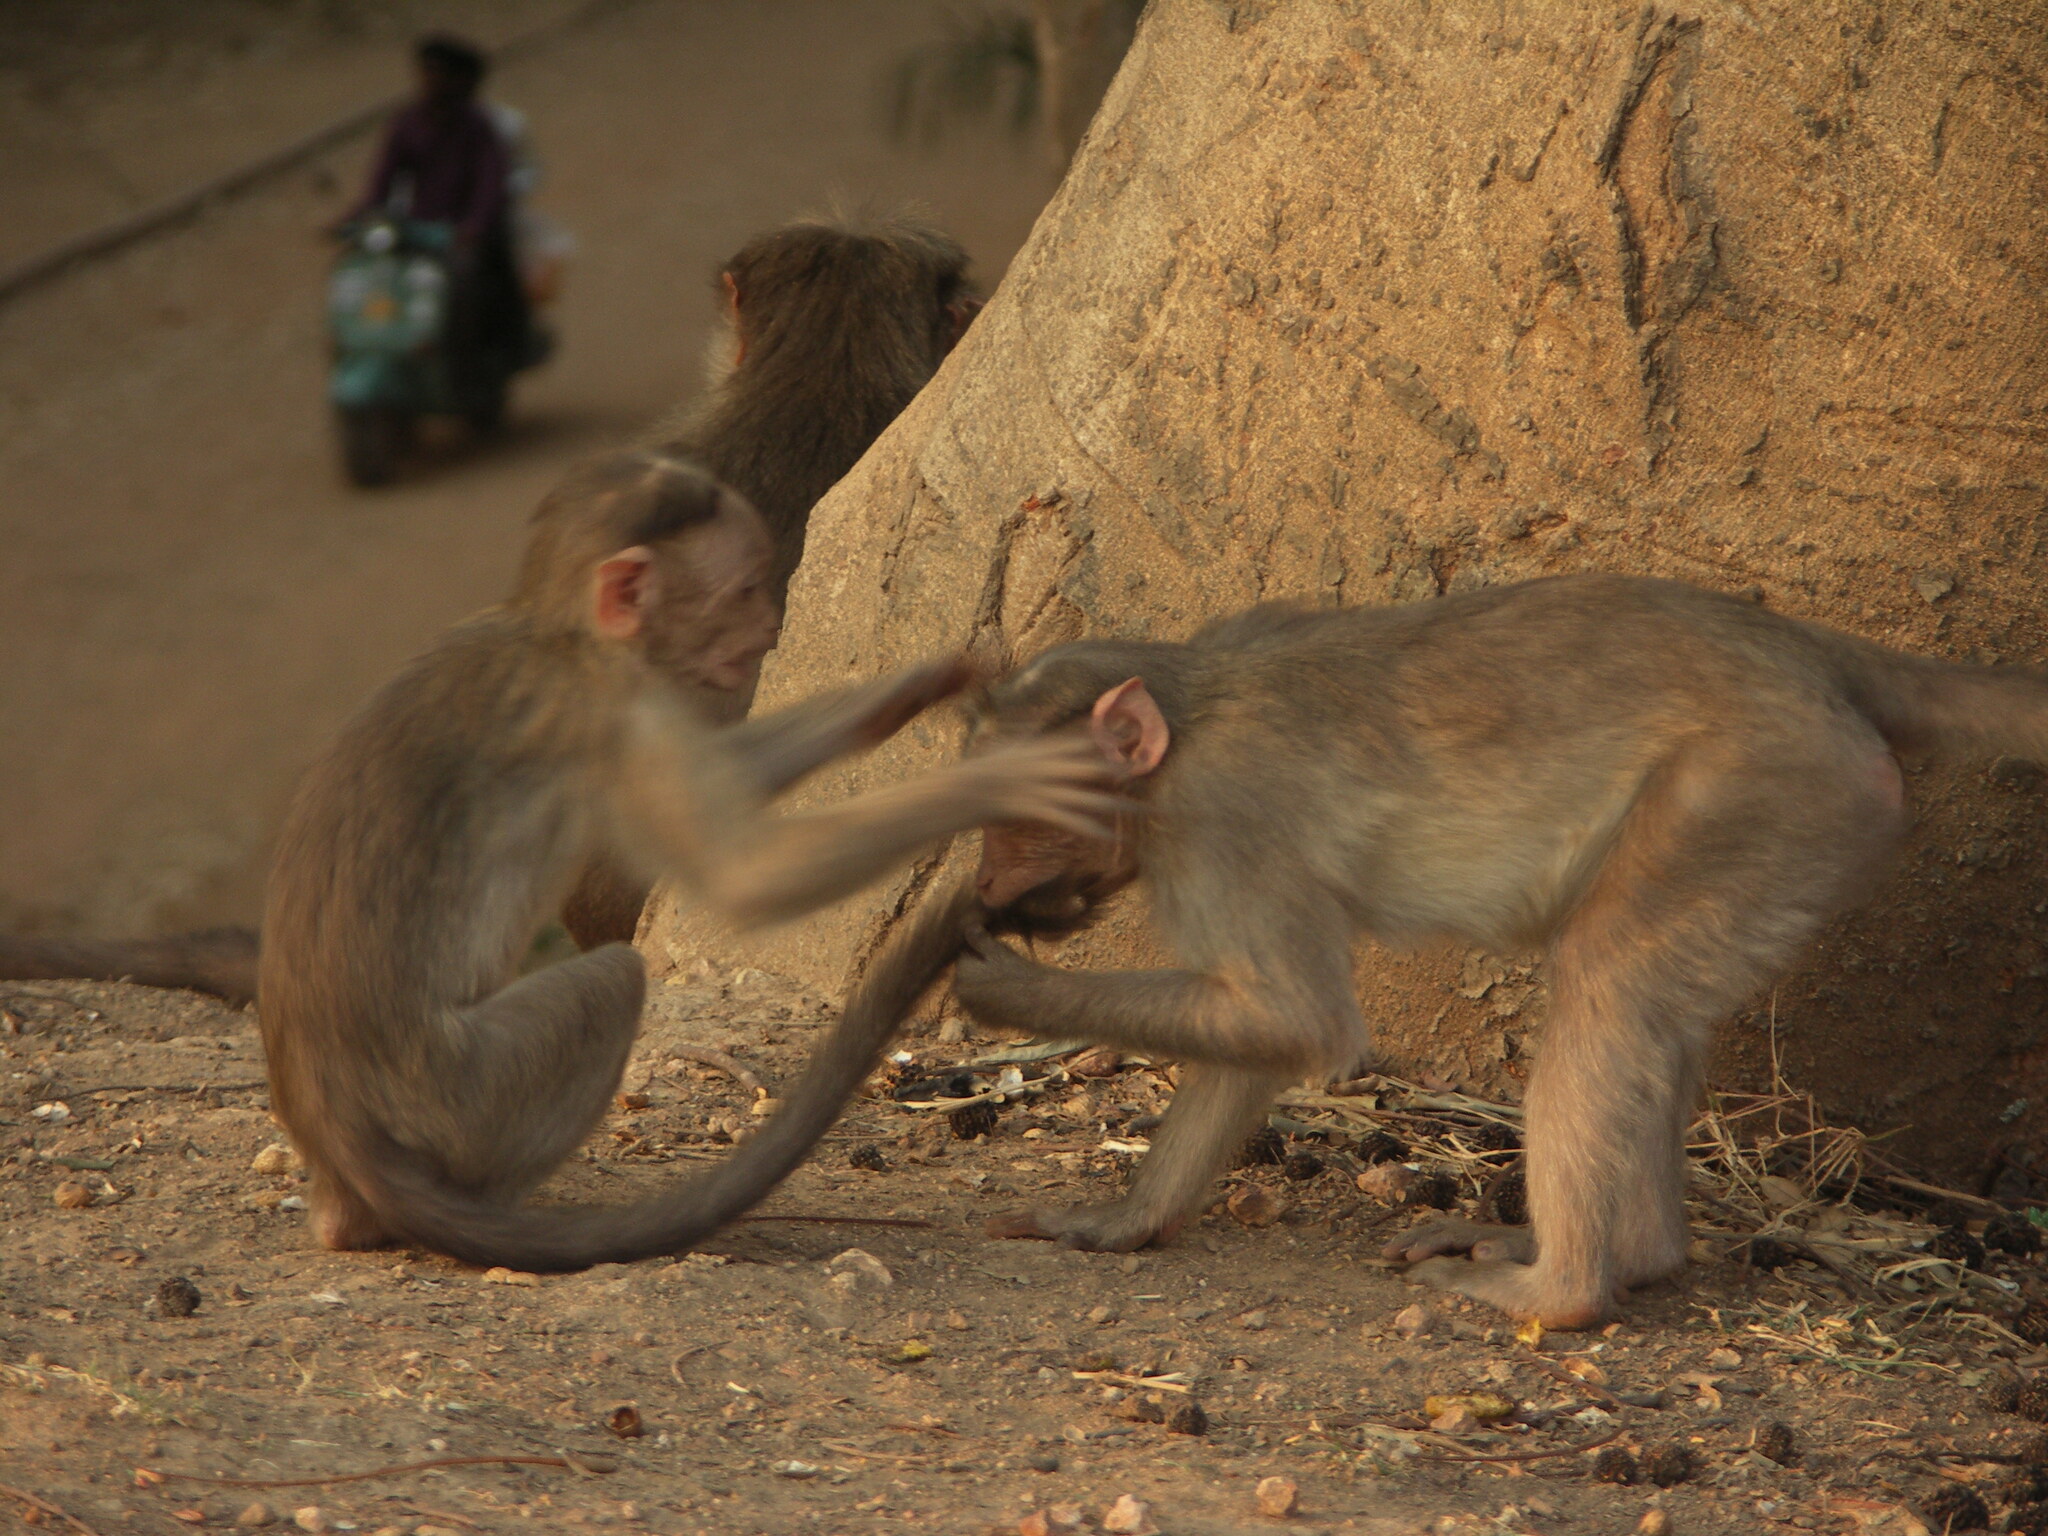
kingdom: Animalia
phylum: Chordata
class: Mammalia
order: Primates
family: Cercopithecidae
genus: Macaca
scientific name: Macaca radiata
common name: Bonnet macaque
